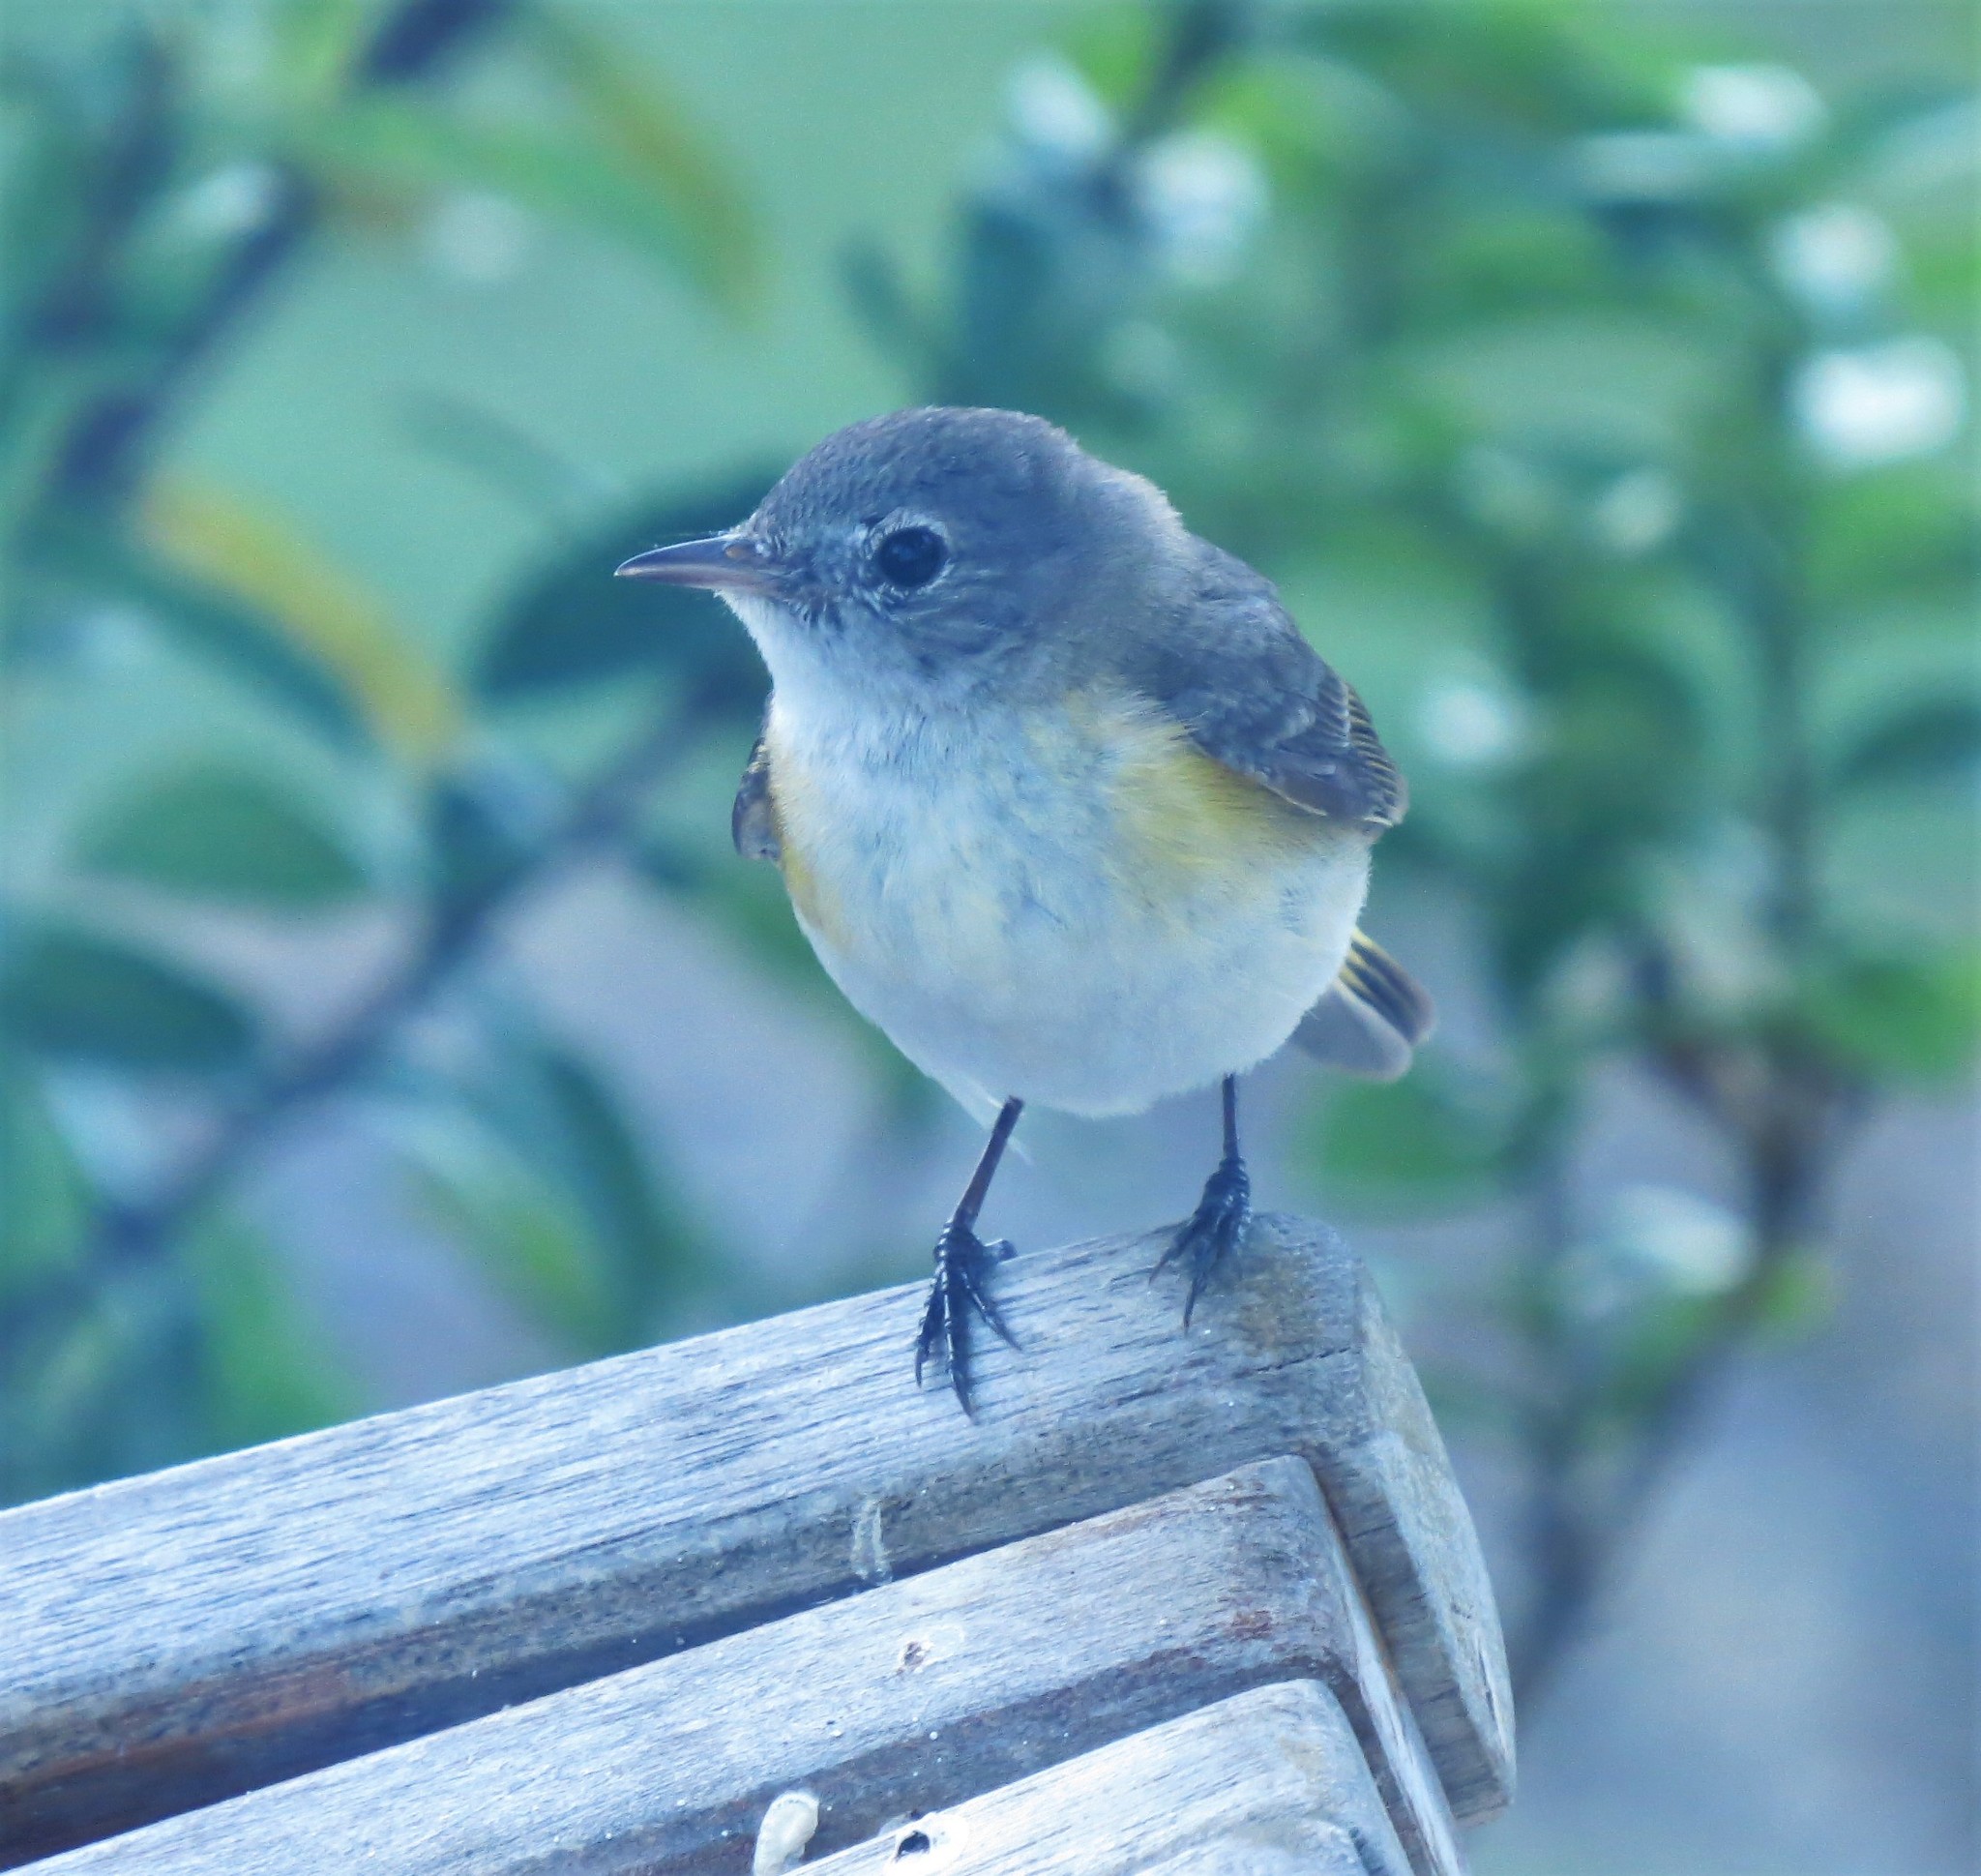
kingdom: Animalia
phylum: Chordata
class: Aves
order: Passeriformes
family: Parulidae
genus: Setophaga
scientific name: Setophaga ruticilla
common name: American redstart
